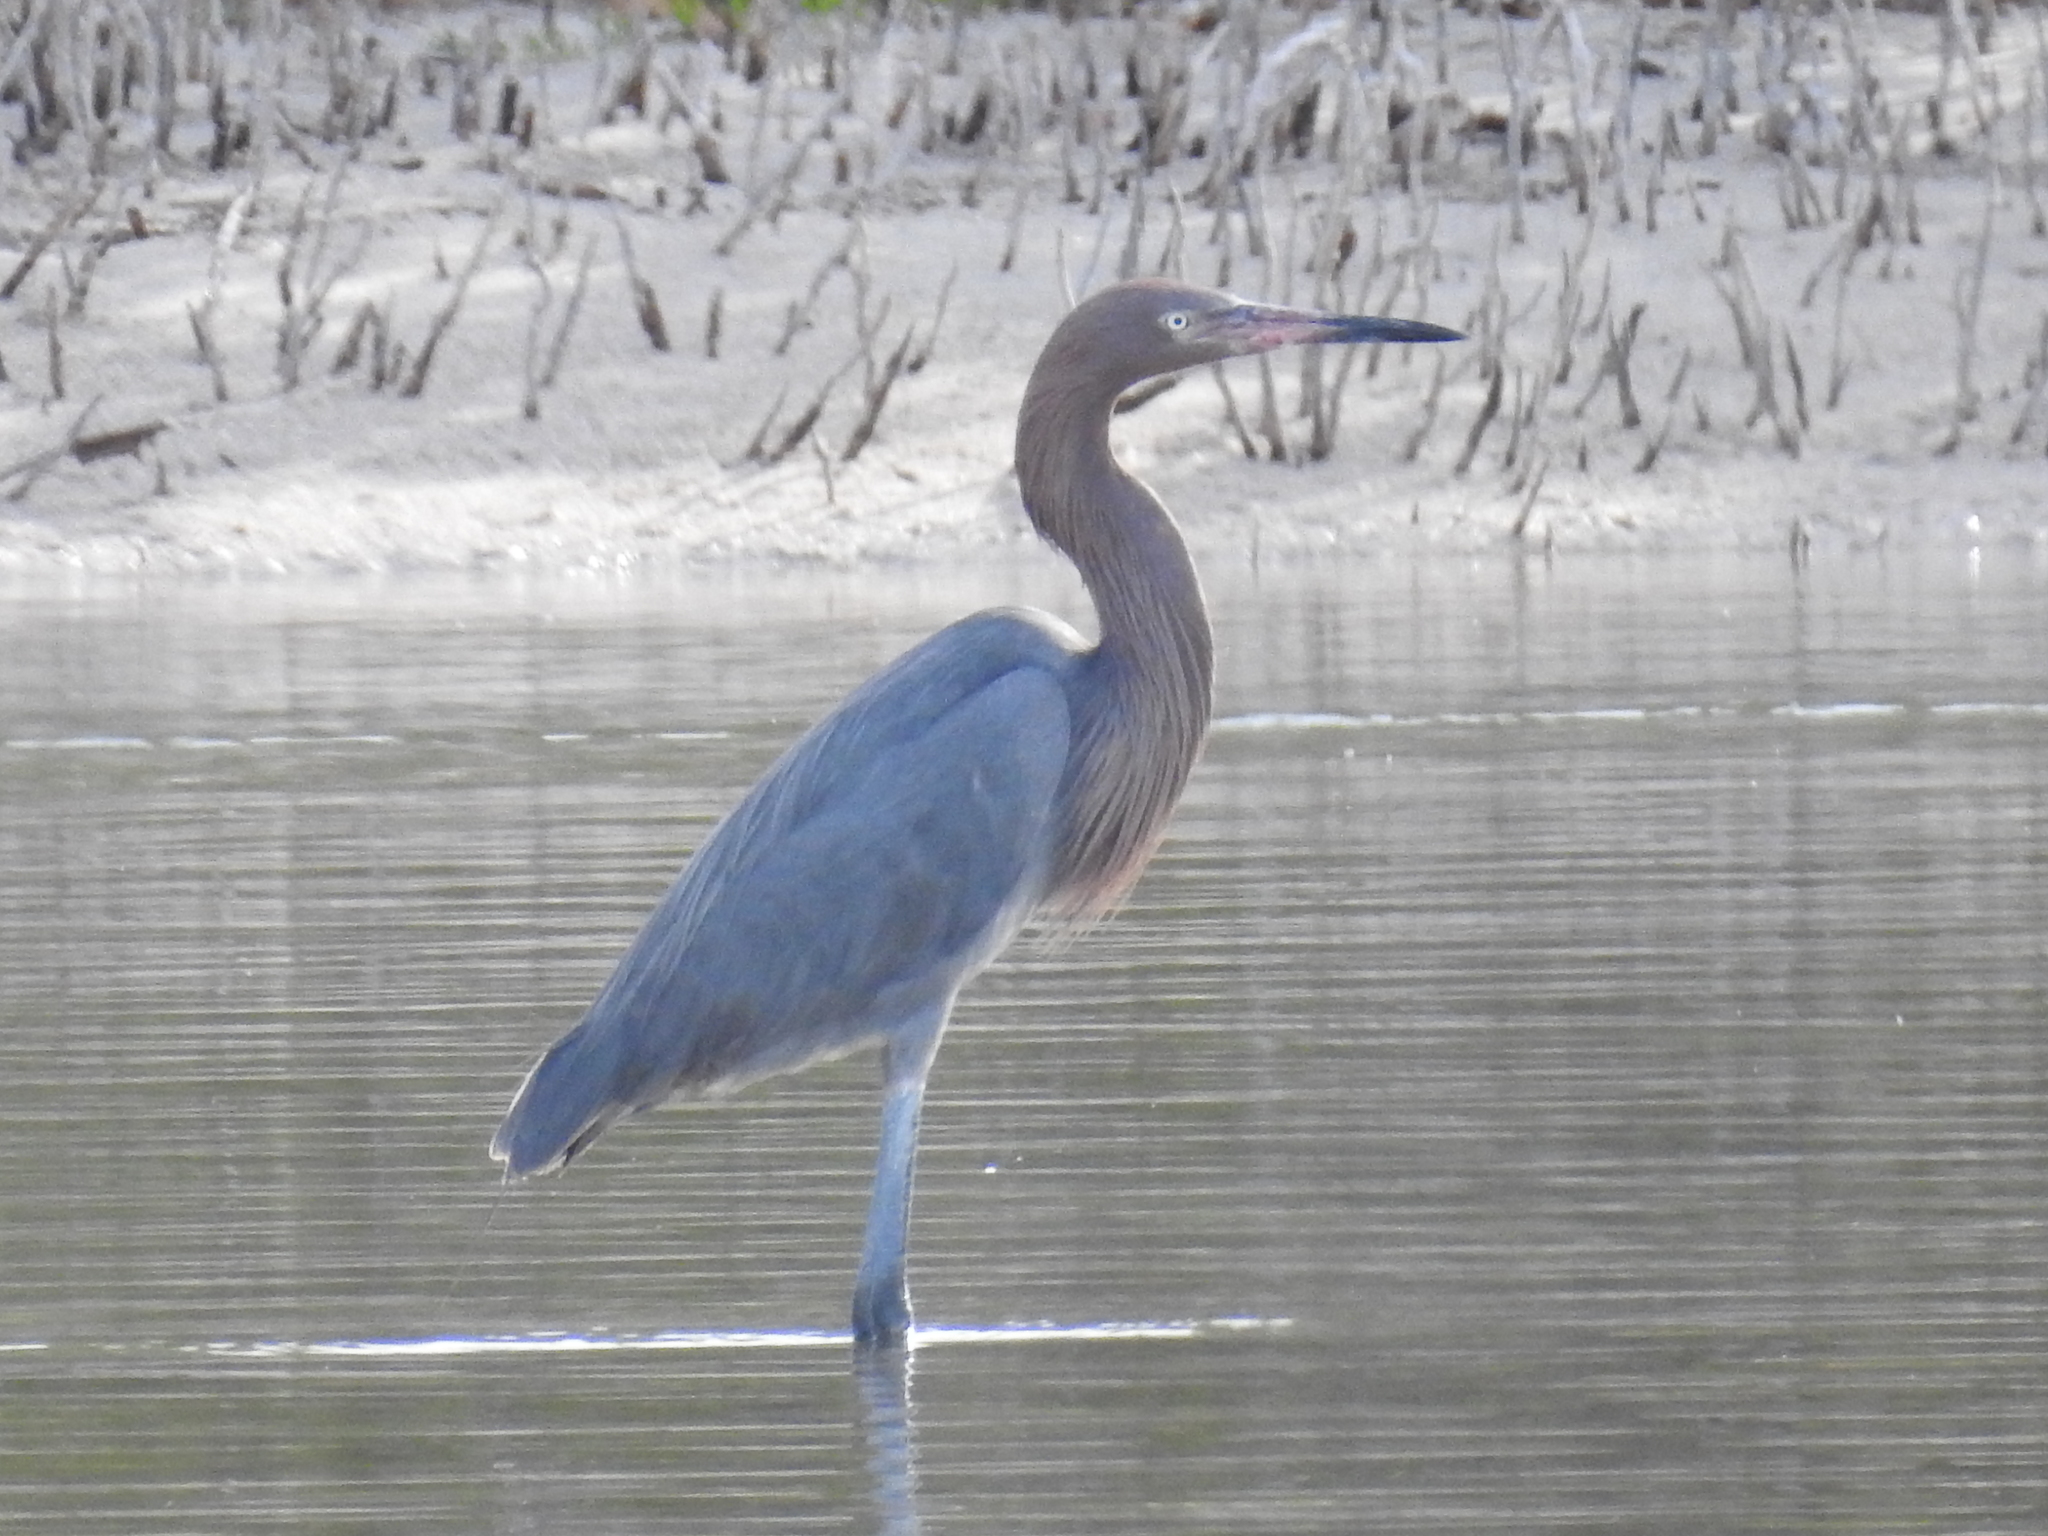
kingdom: Animalia
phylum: Chordata
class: Aves
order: Pelecaniformes
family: Ardeidae
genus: Egretta
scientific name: Egretta rufescens
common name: Reddish egret
